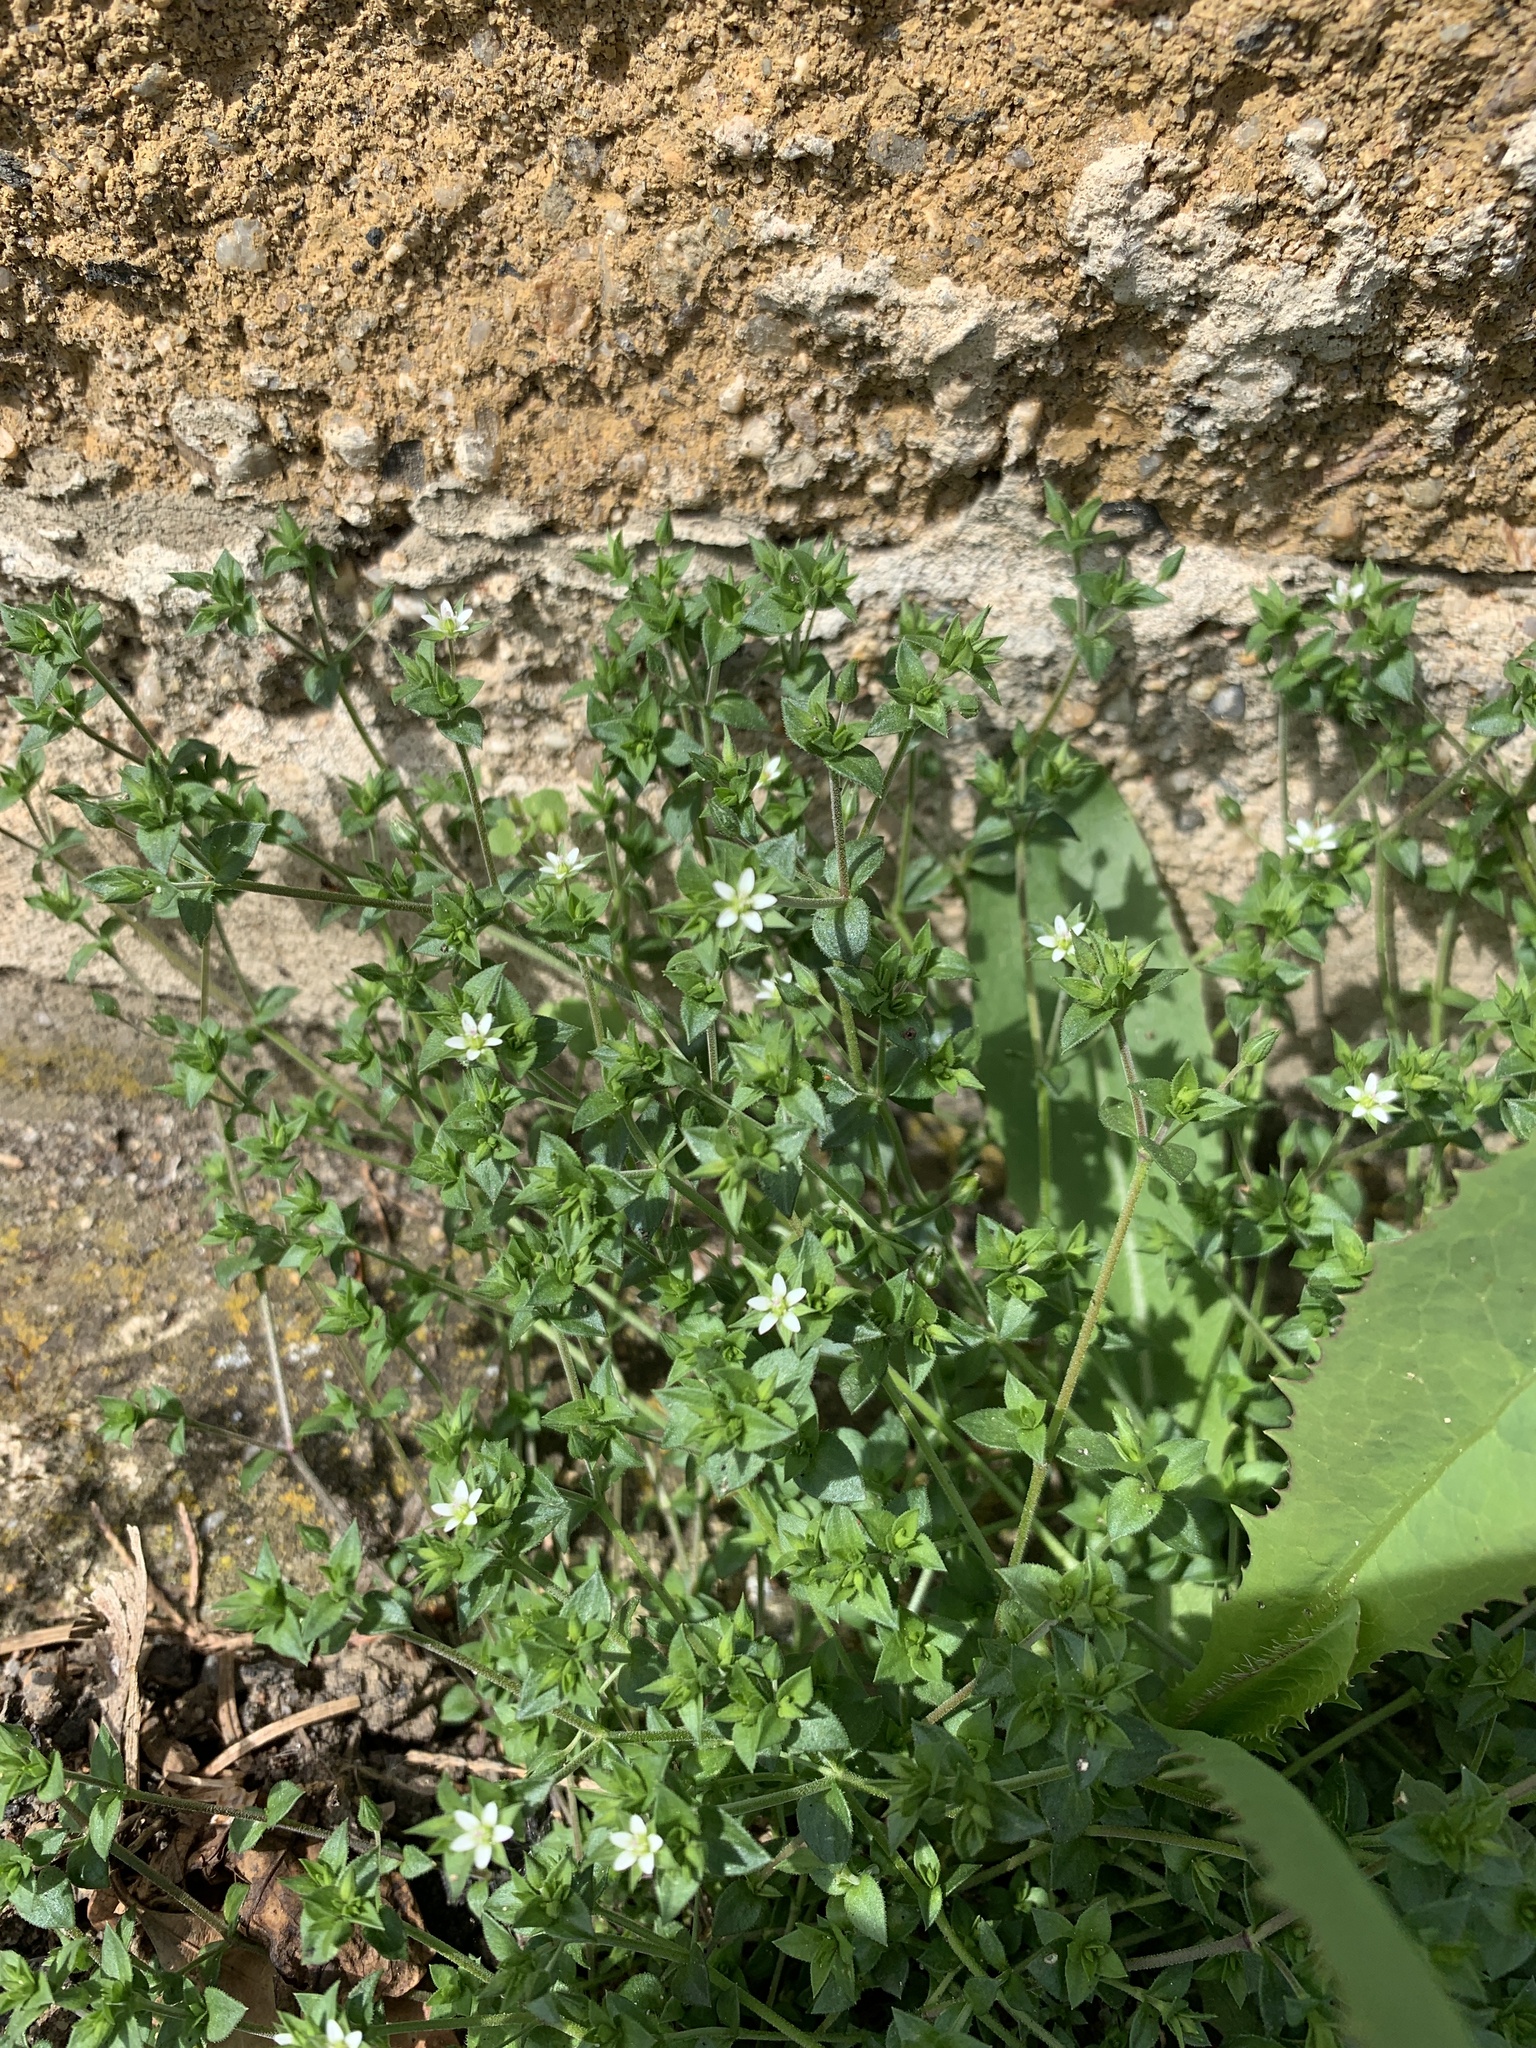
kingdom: Plantae
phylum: Tracheophyta
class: Magnoliopsida
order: Caryophyllales
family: Caryophyllaceae
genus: Arenaria
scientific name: Arenaria serpyllifolia
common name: Thyme-leaved sandwort
